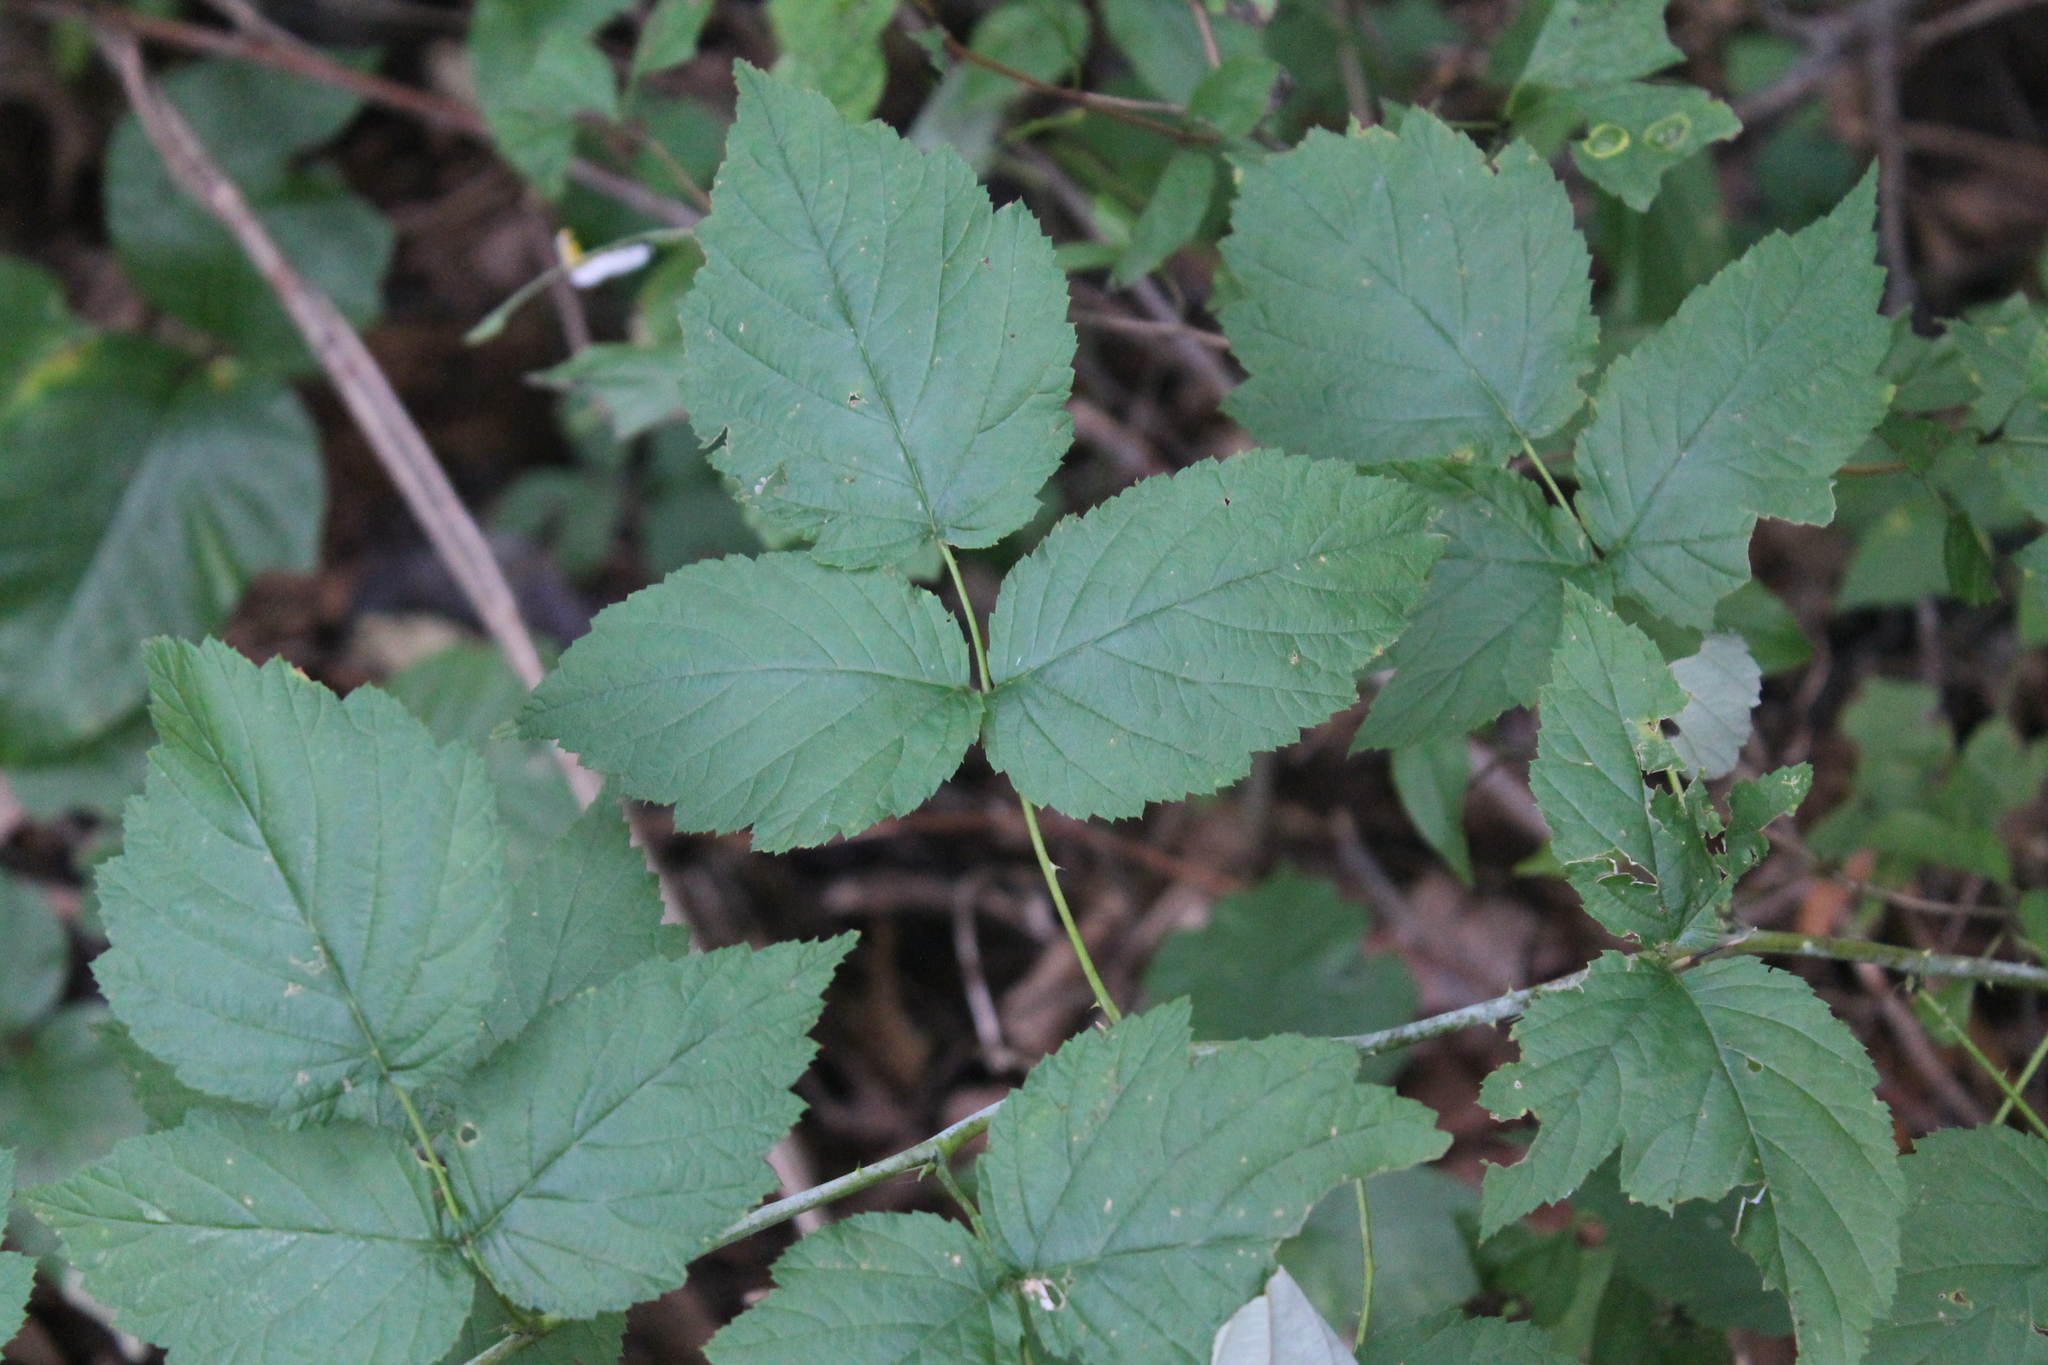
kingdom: Plantae
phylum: Tracheophyta
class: Magnoliopsida
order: Rosales
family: Rosaceae
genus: Rubus
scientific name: Rubus occidentalis
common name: Black raspberry
